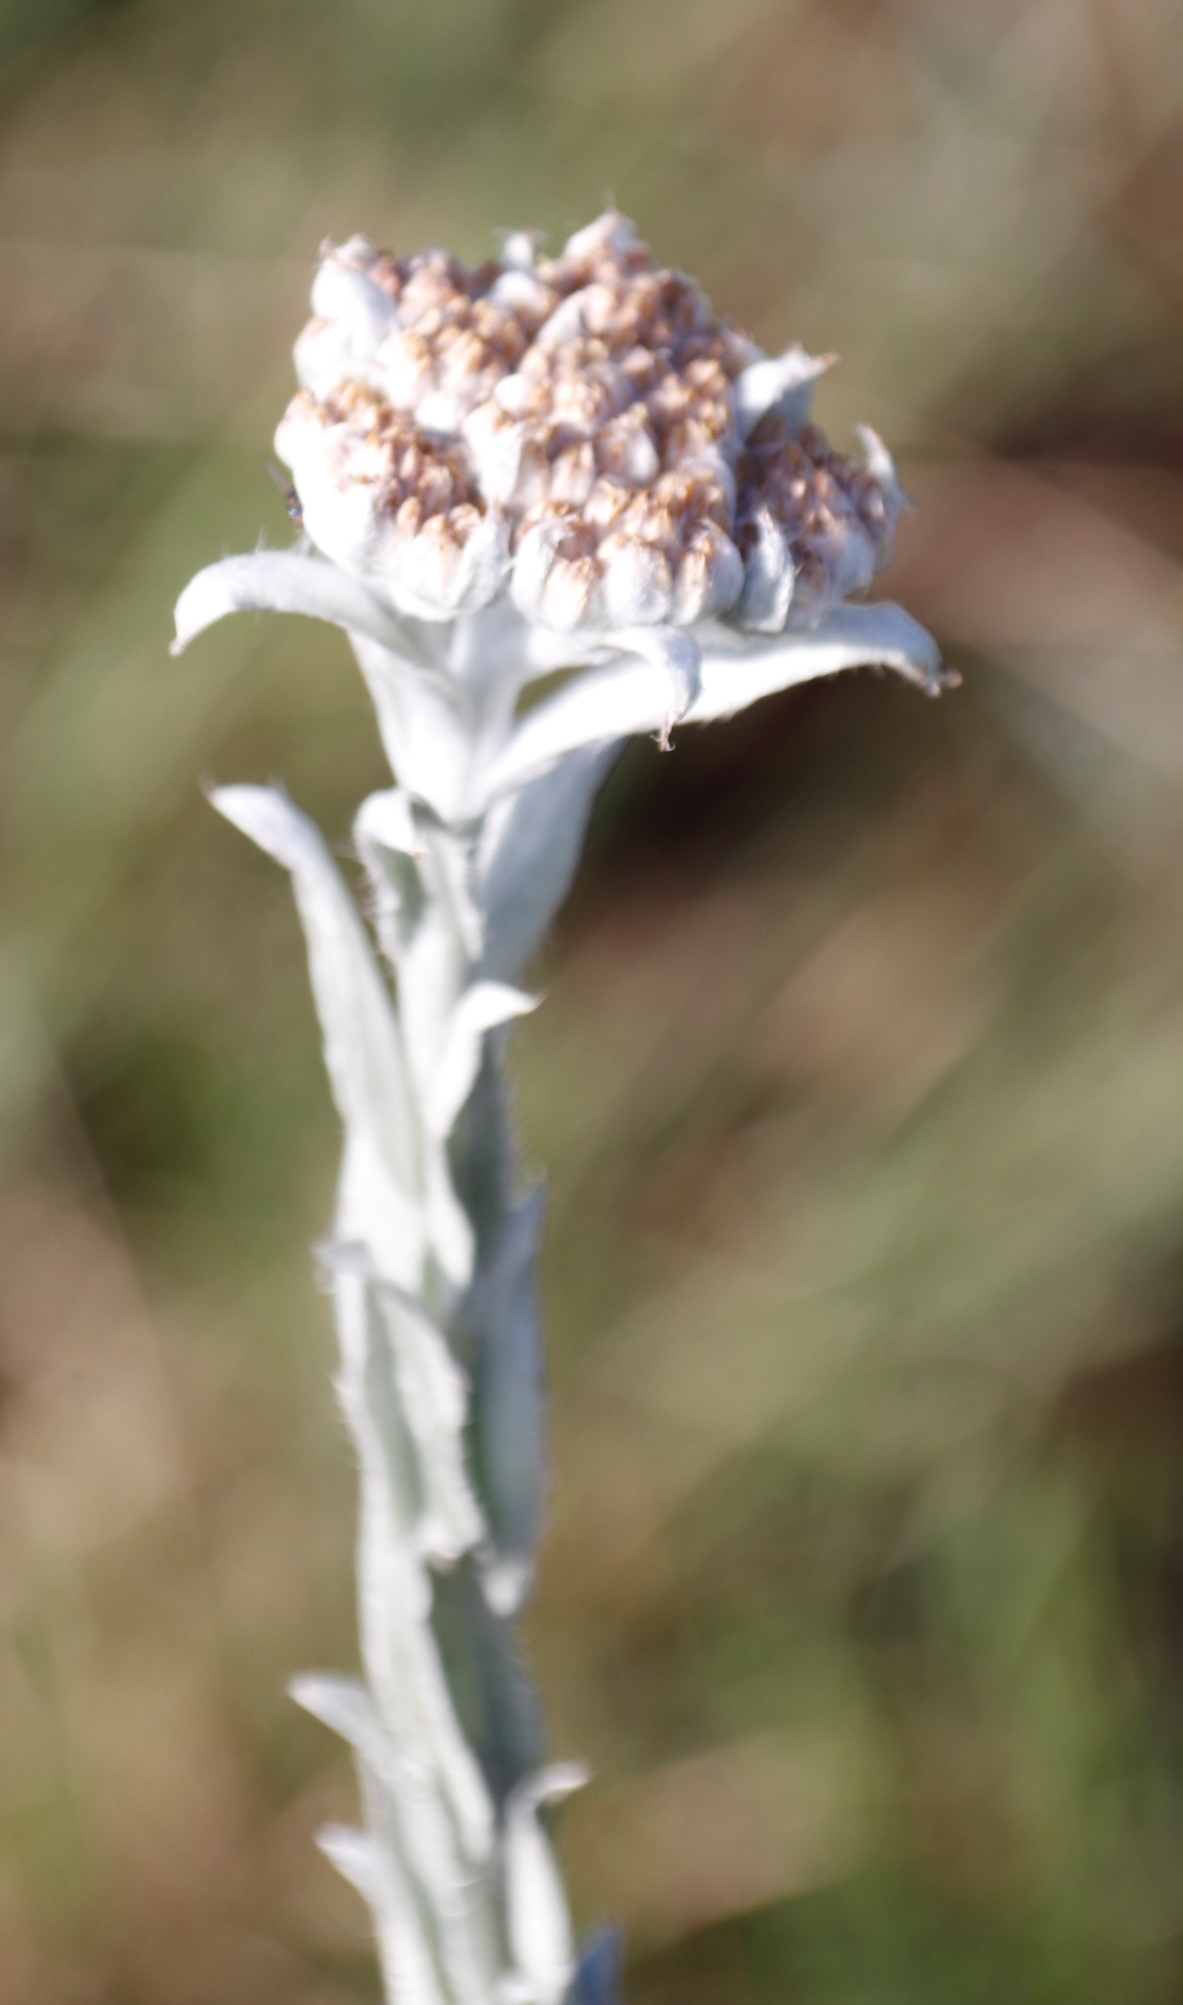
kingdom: Plantae
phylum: Tracheophyta
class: Magnoliopsida
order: Asterales
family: Asteraceae
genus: Helichrysum
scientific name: Helichrysum glomeratum
